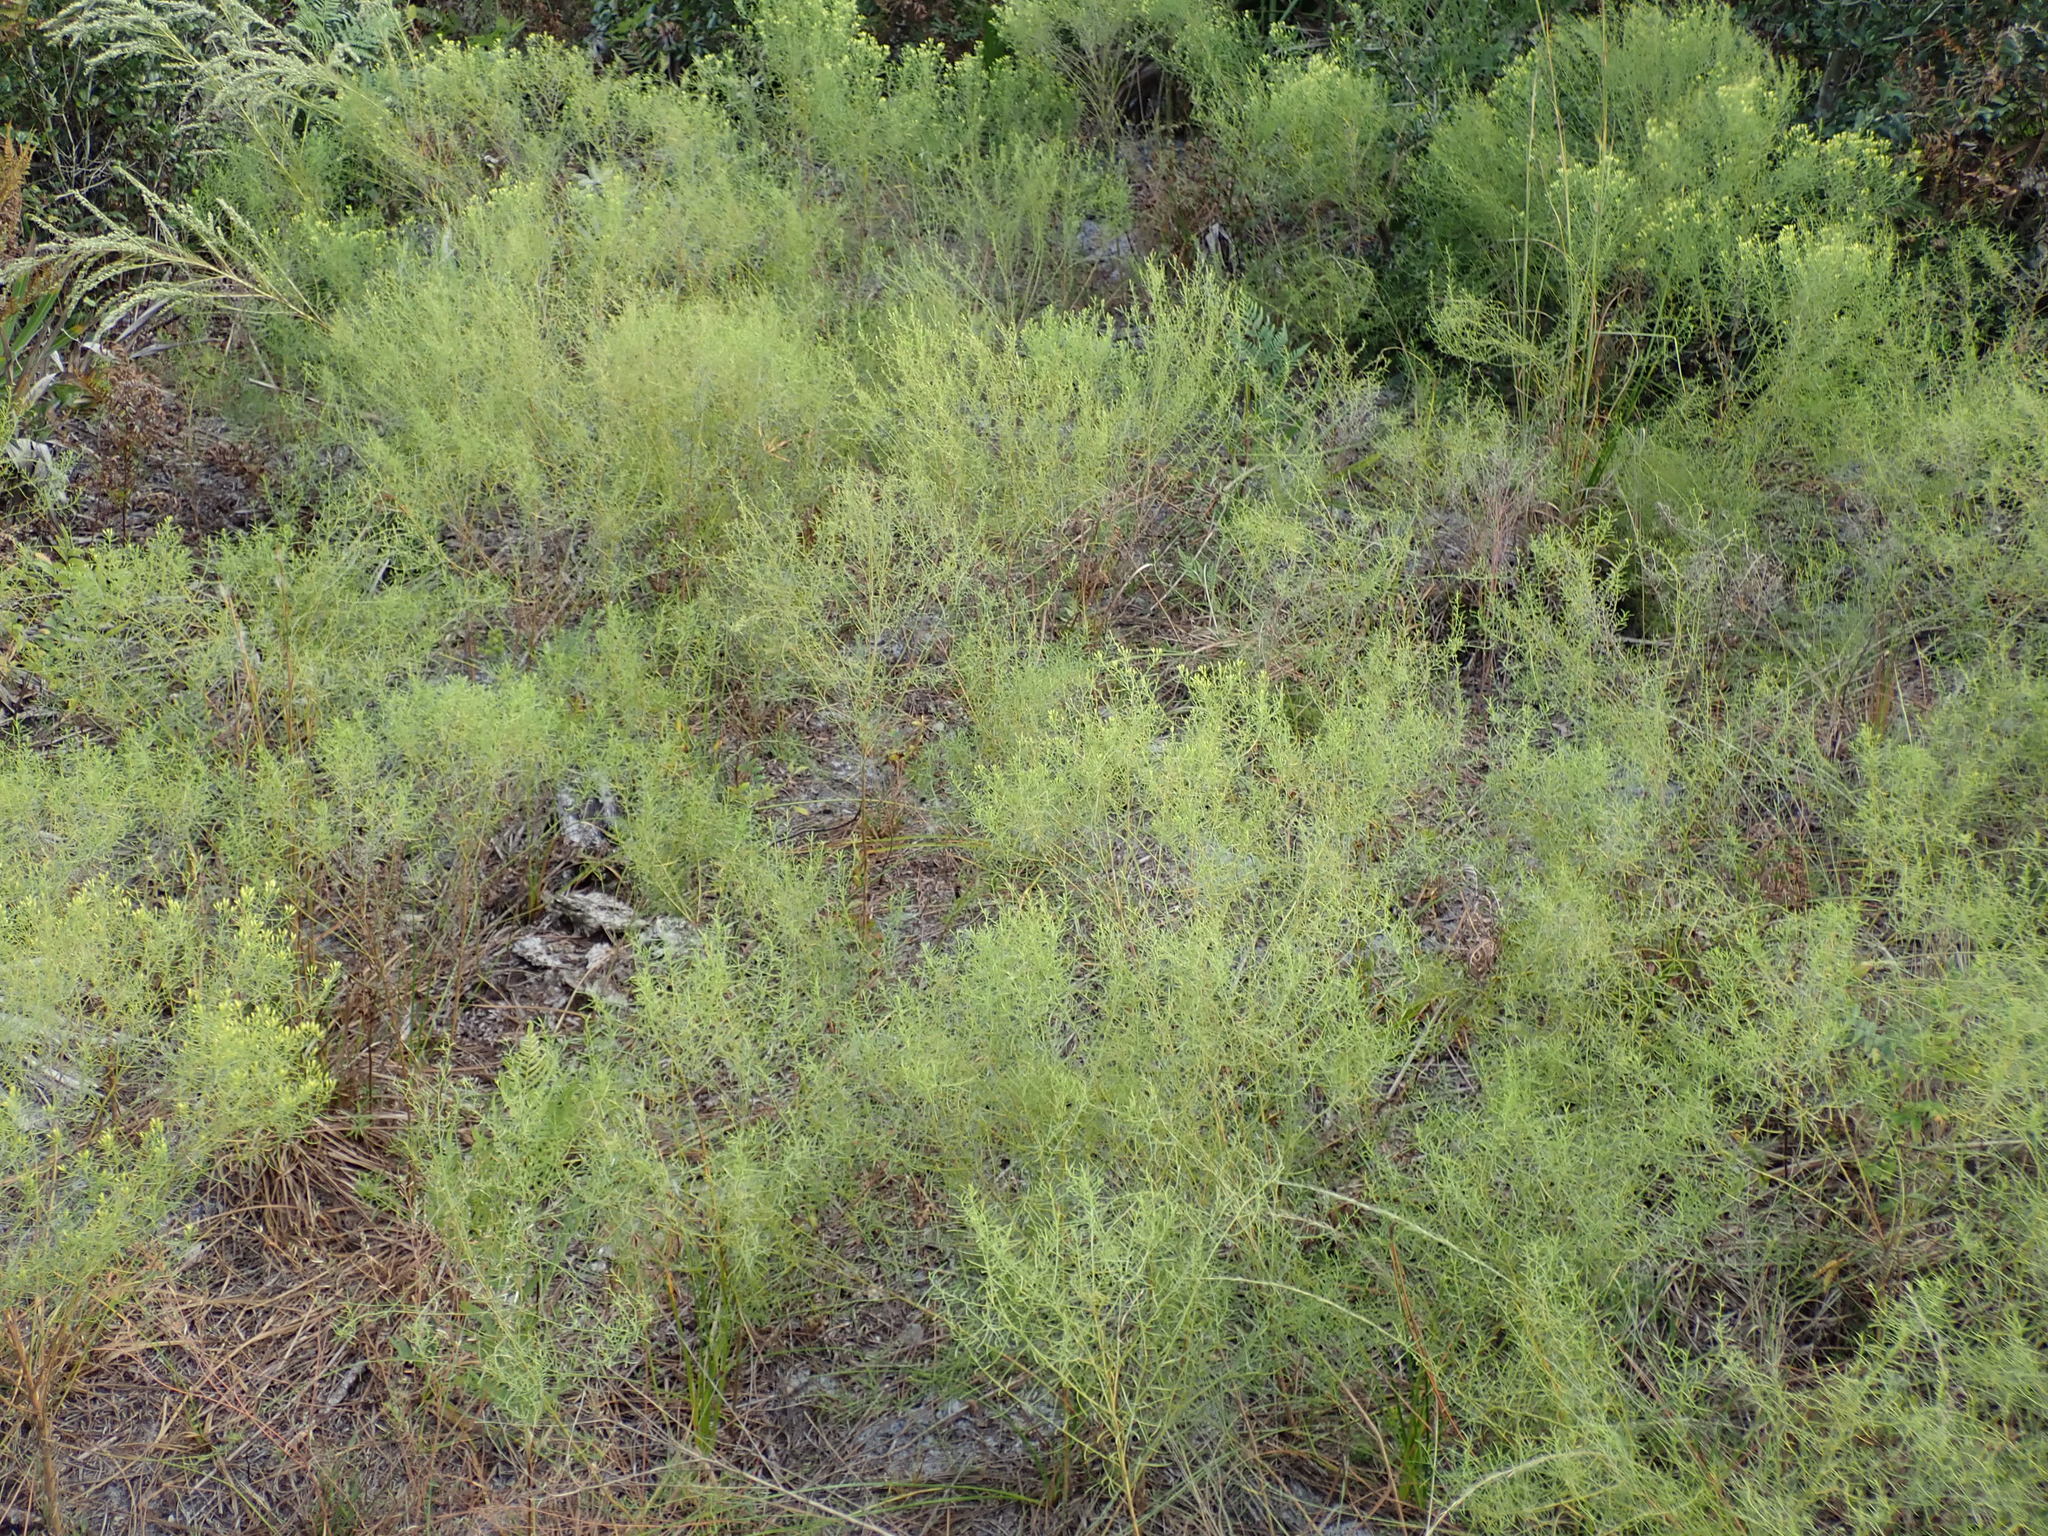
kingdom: Plantae
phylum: Tracheophyta
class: Magnoliopsida
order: Asterales
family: Asteraceae
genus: Euthamia
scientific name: Euthamia caroliniana
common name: Coastal plain goldentop
